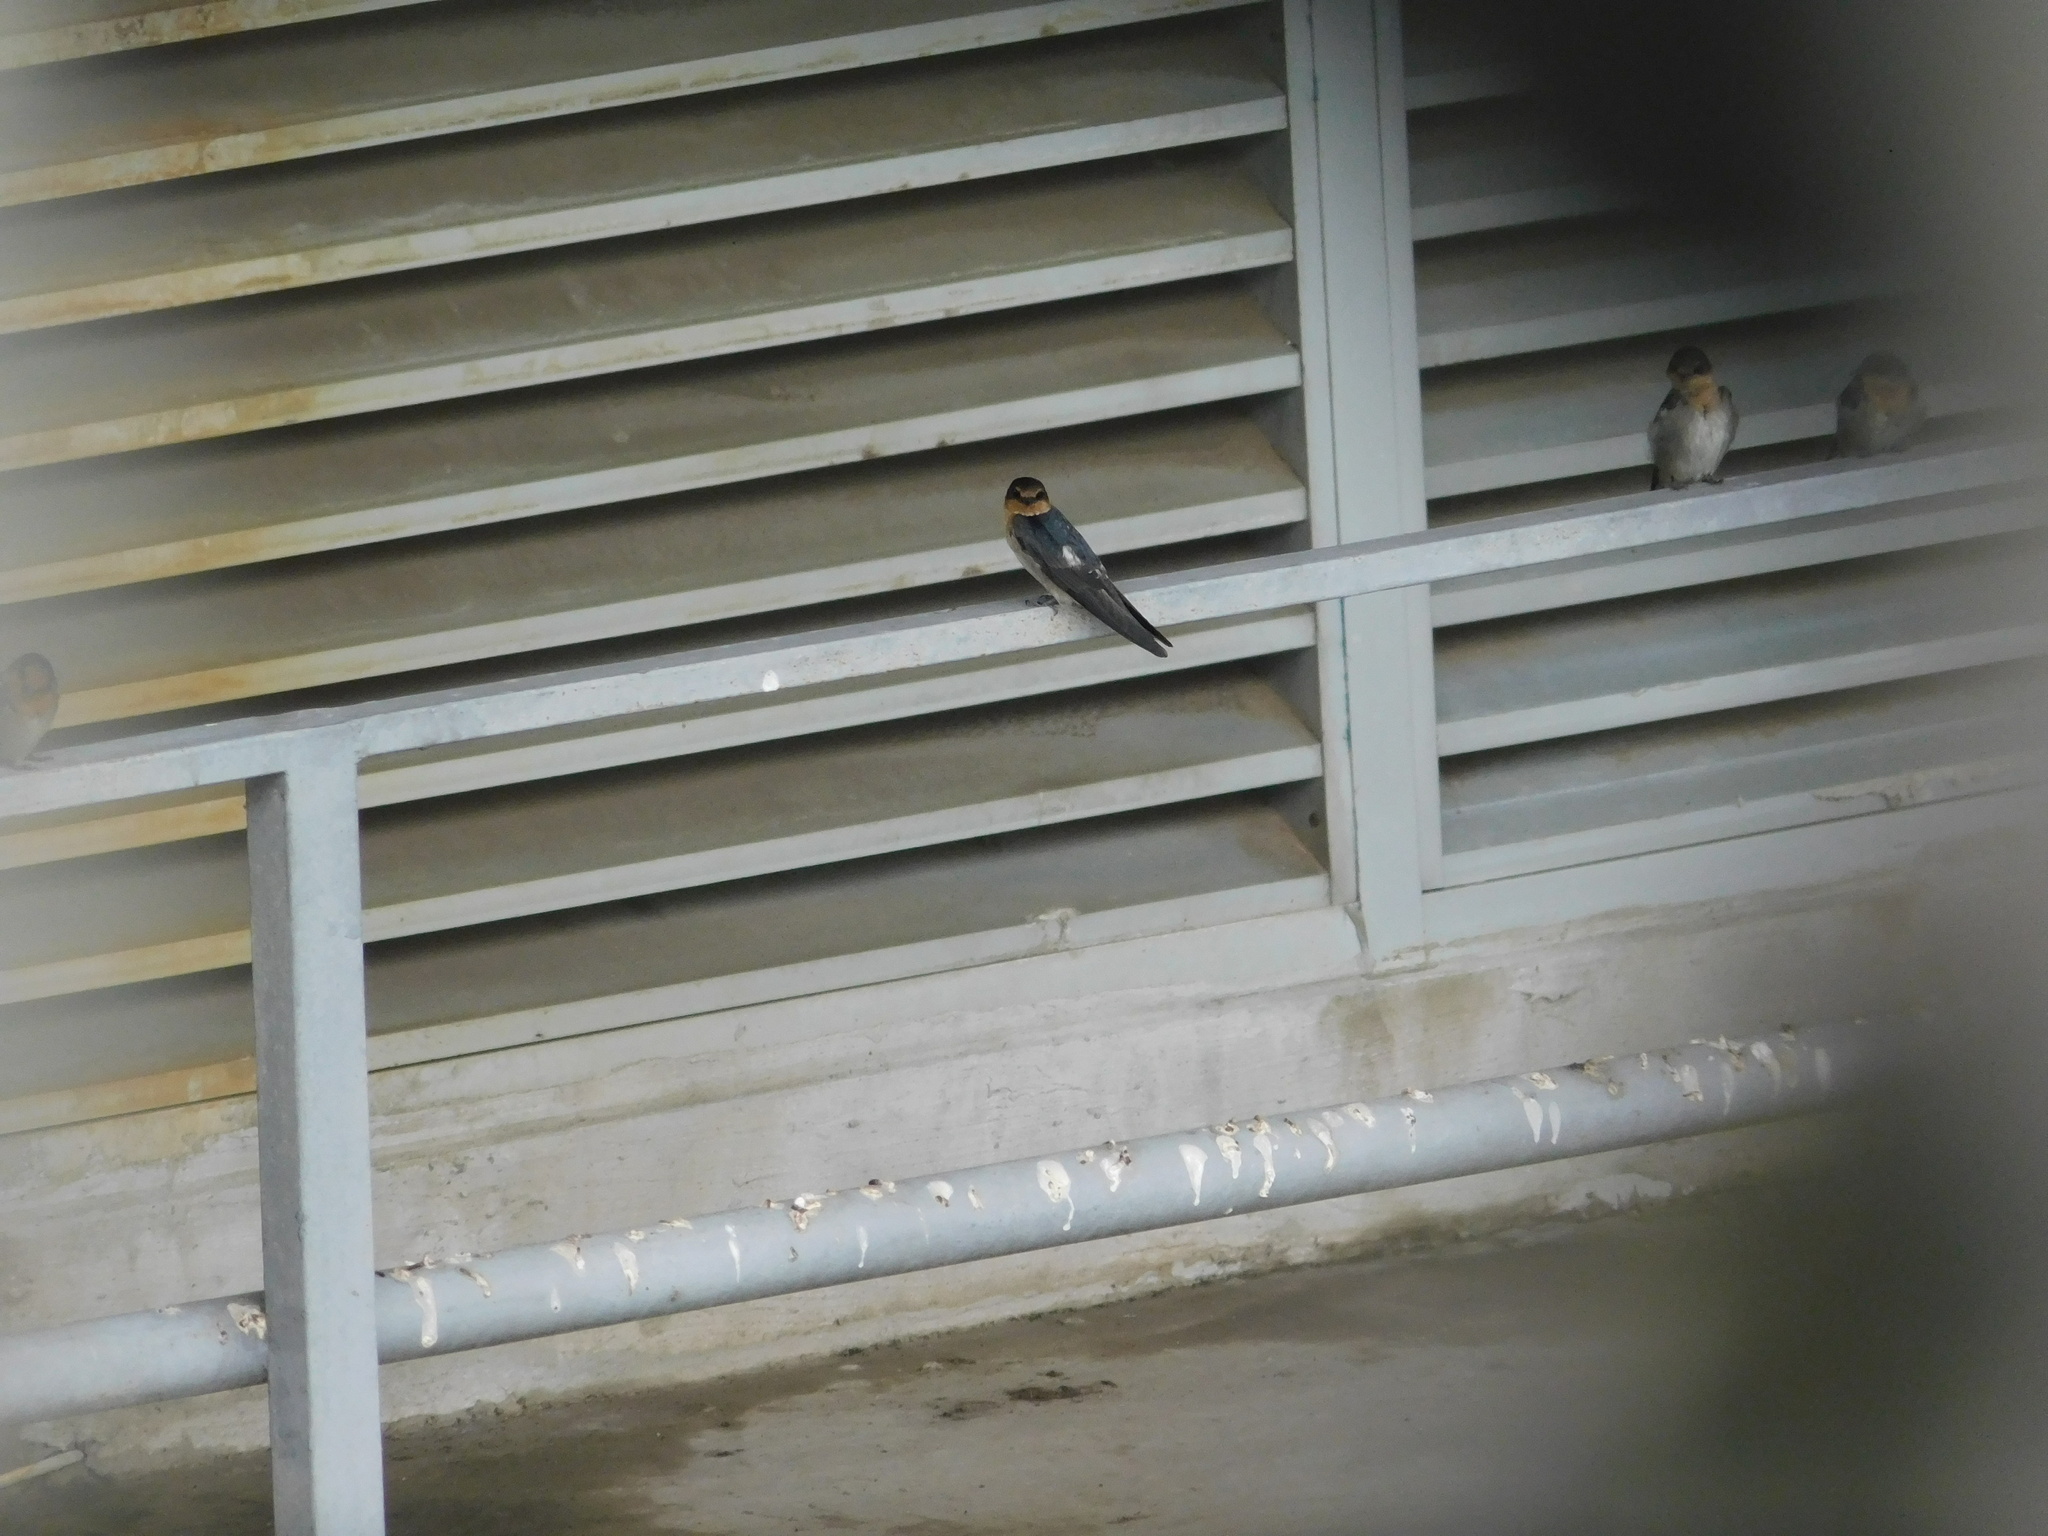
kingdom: Animalia
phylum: Chordata
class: Aves
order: Passeriformes
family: Hirundinidae
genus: Hirundo
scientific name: Hirundo tahitica
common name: Pacific swallow
